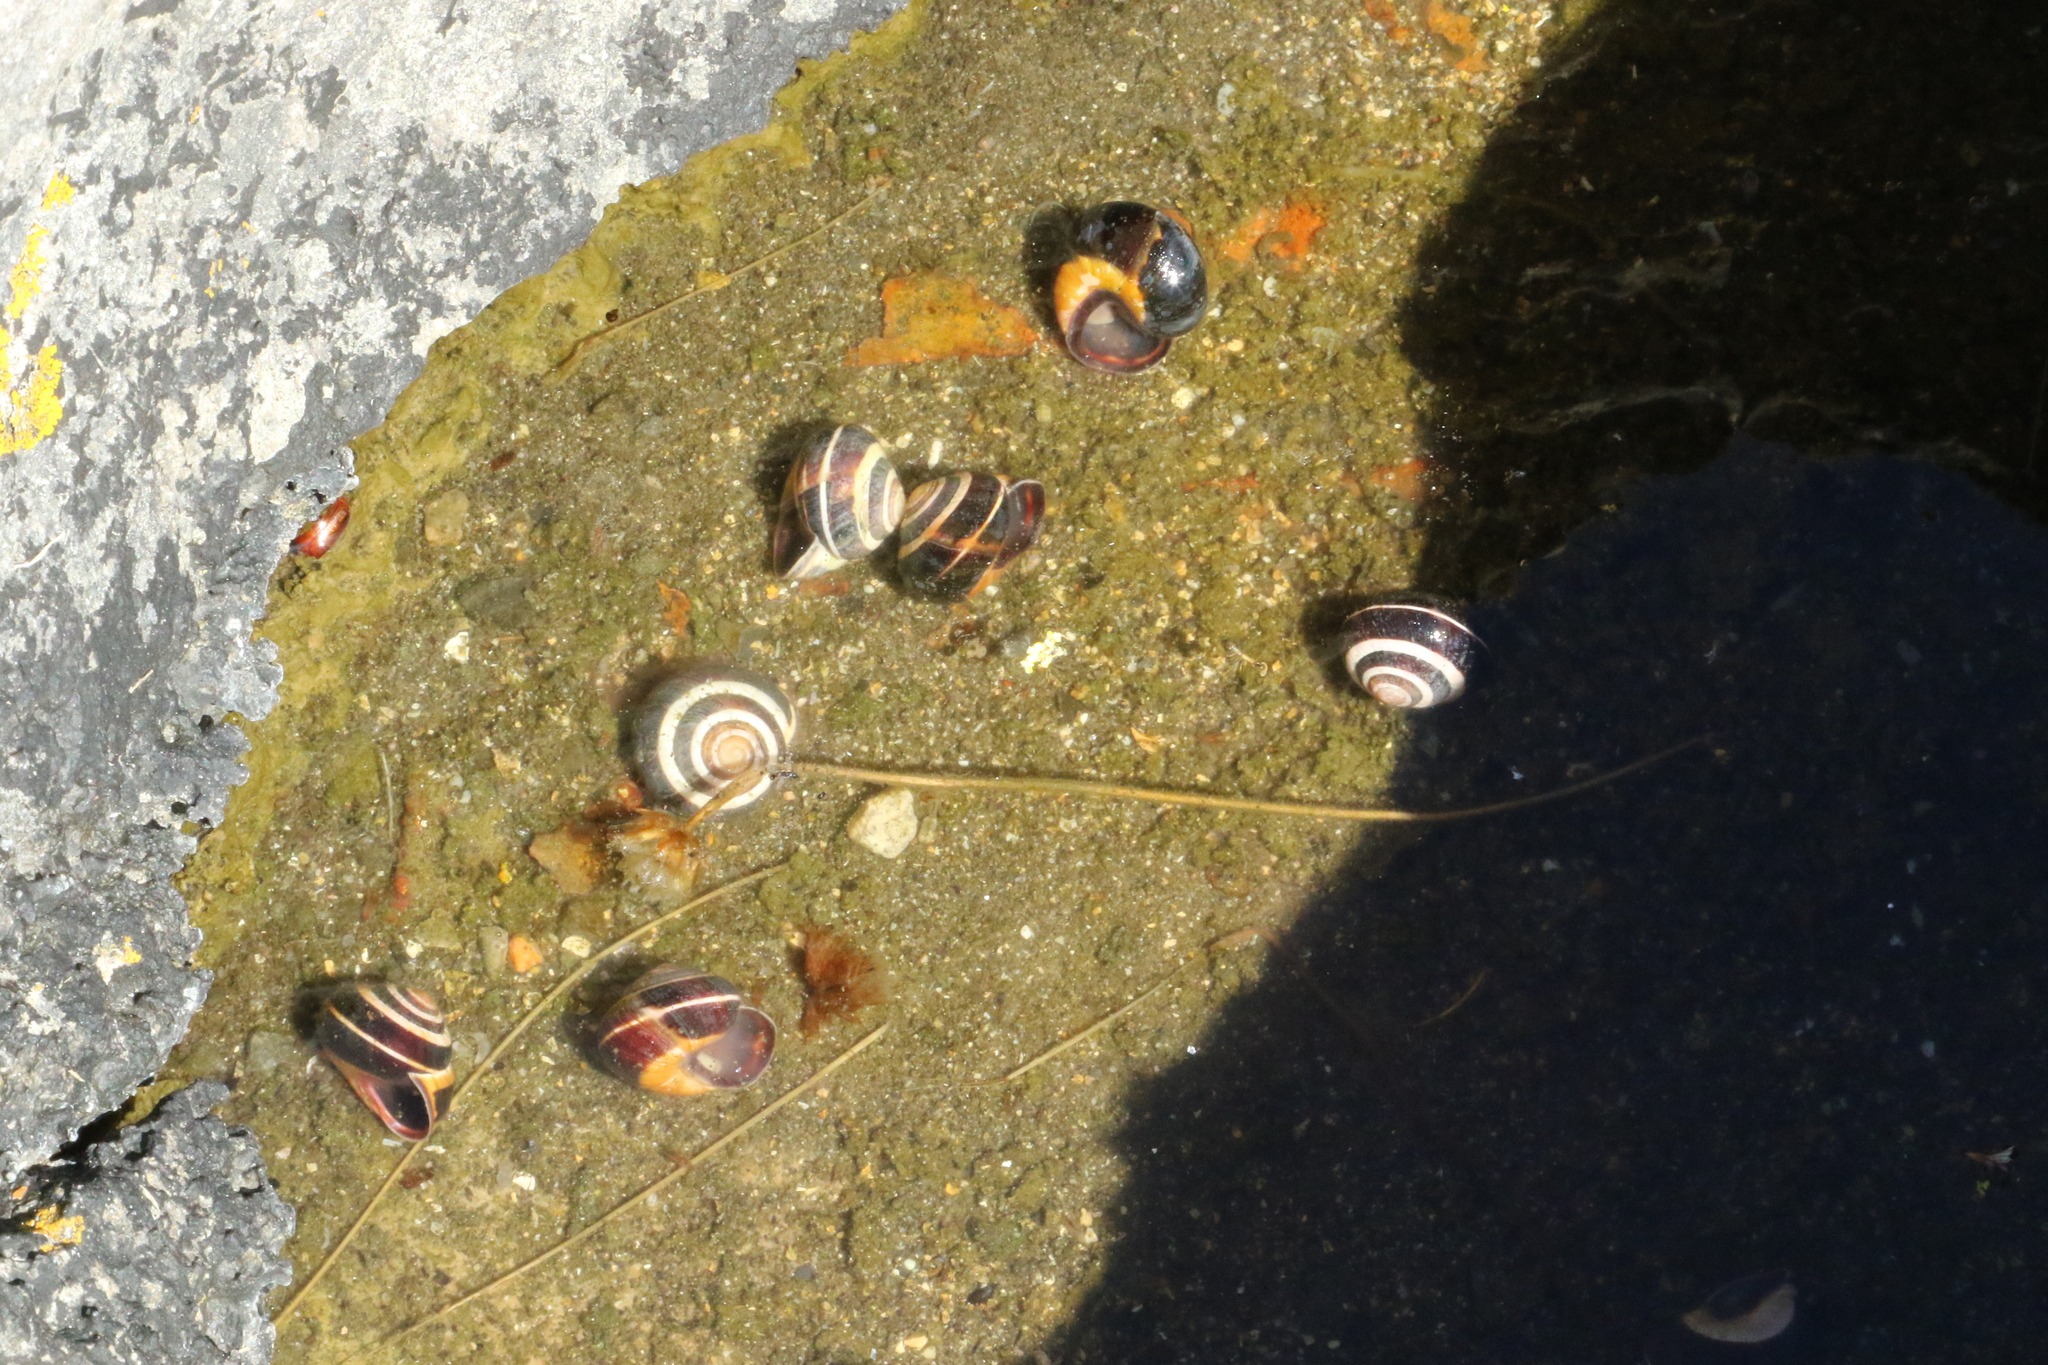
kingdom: Animalia
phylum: Mollusca
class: Gastropoda
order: Stylommatophora
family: Helicidae
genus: Cepaea
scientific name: Cepaea nemoralis
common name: Grovesnail
